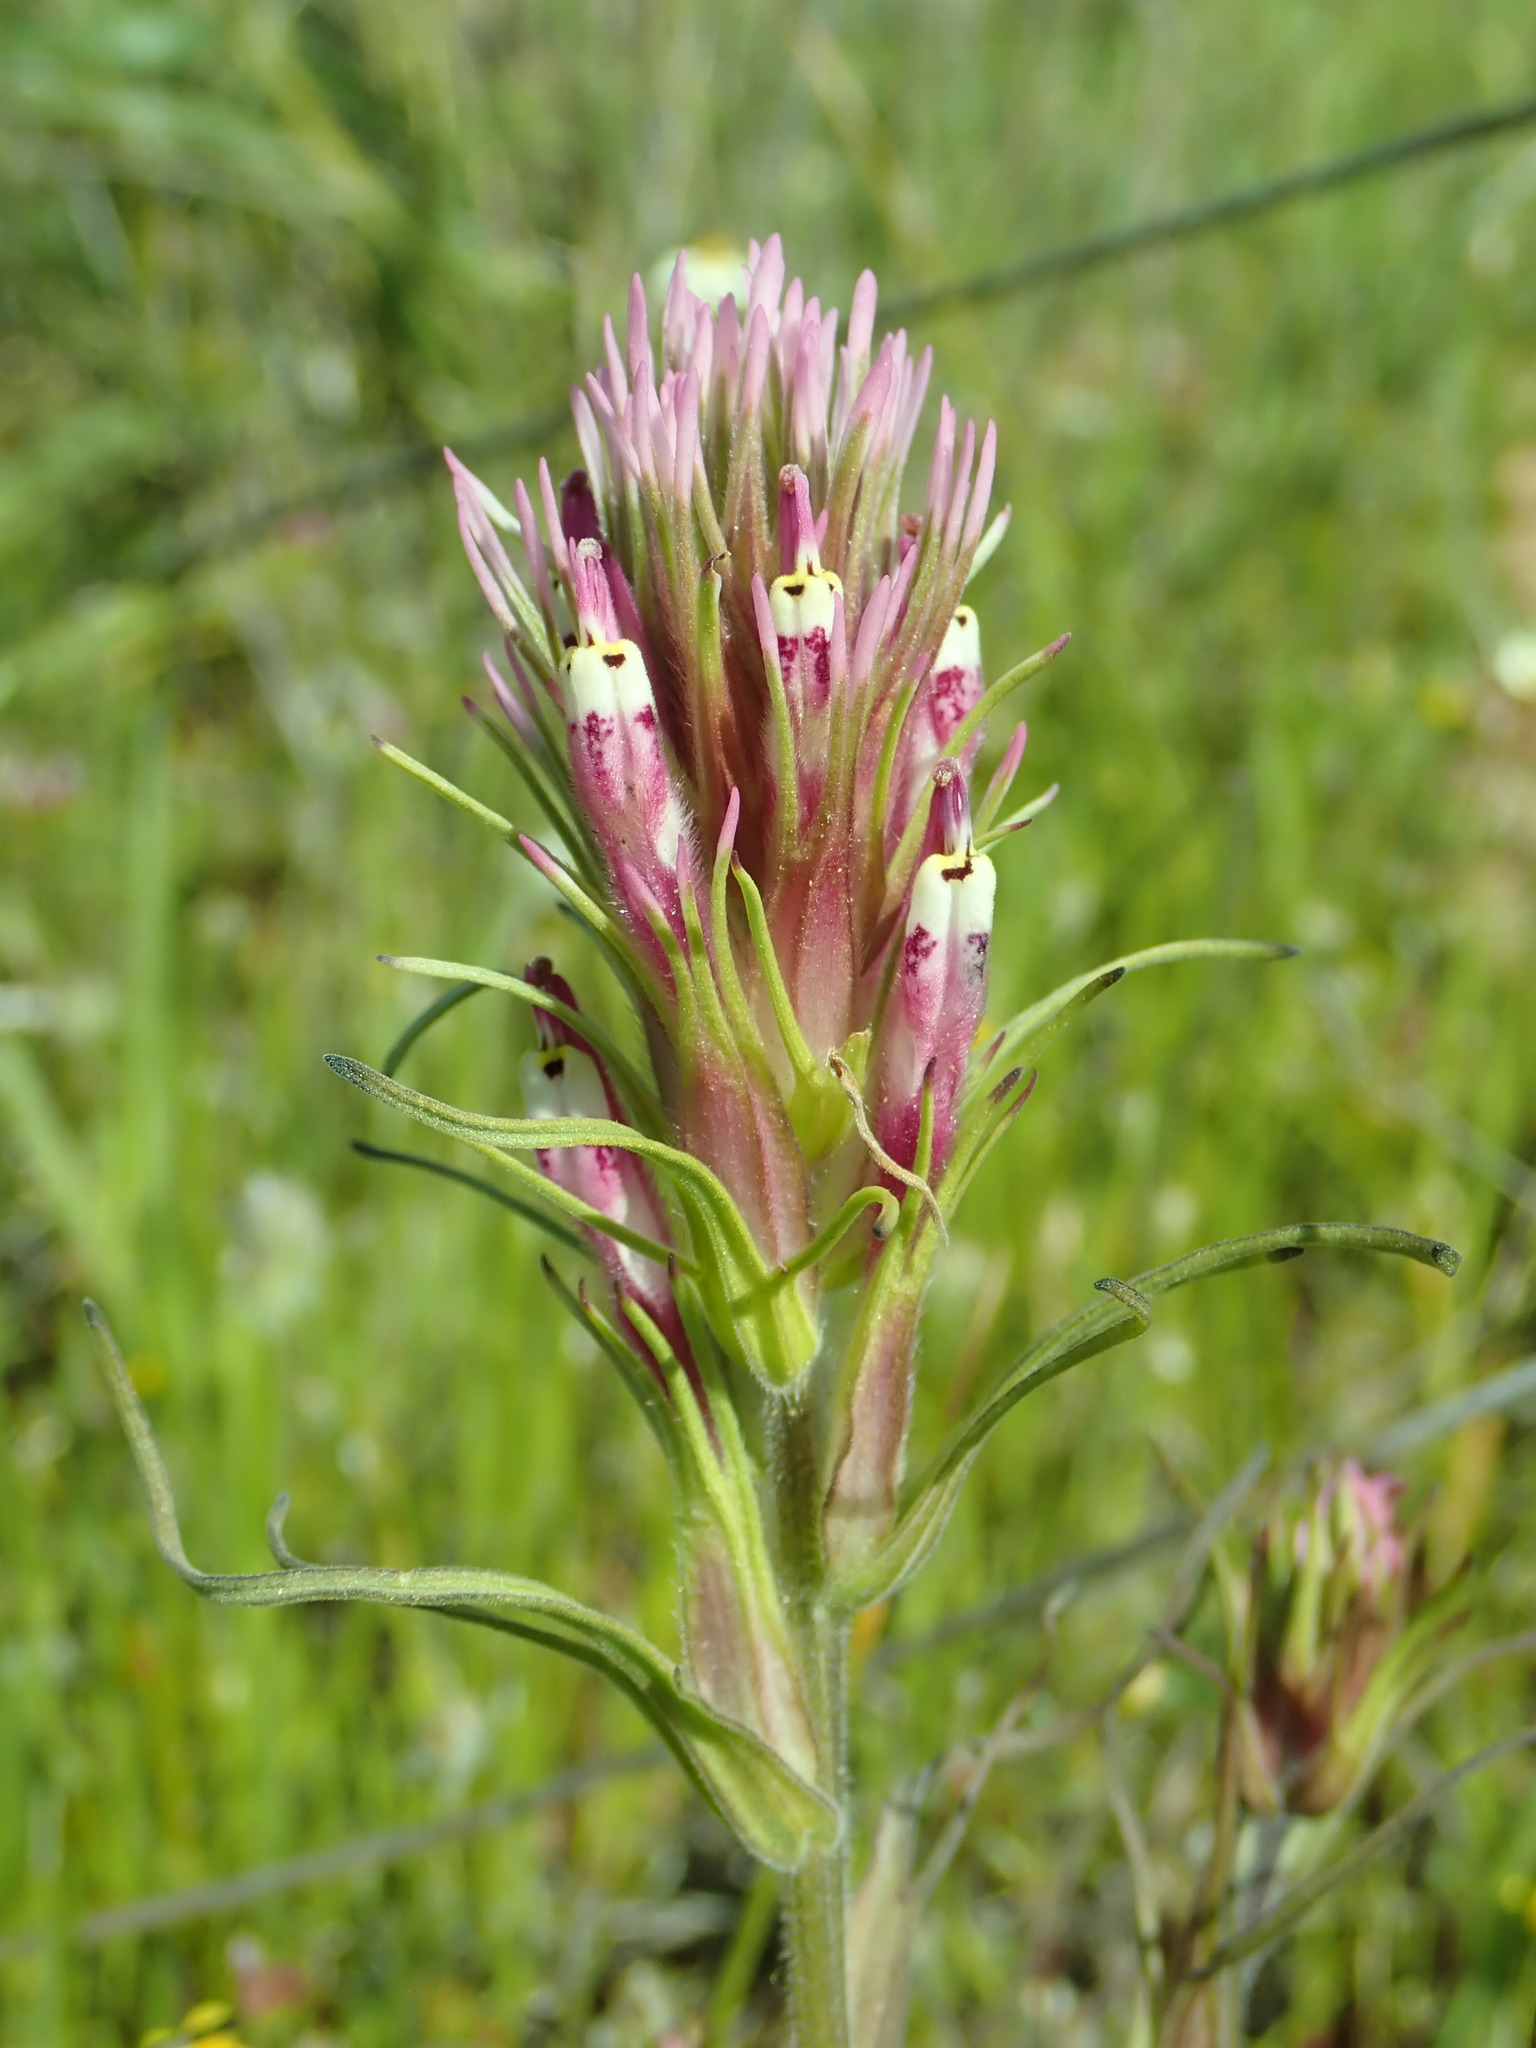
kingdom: Plantae
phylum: Tracheophyta
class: Magnoliopsida
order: Lamiales
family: Orobanchaceae
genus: Castilleja
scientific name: Castilleja densiflora
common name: Dense-flower indian paintbrush
